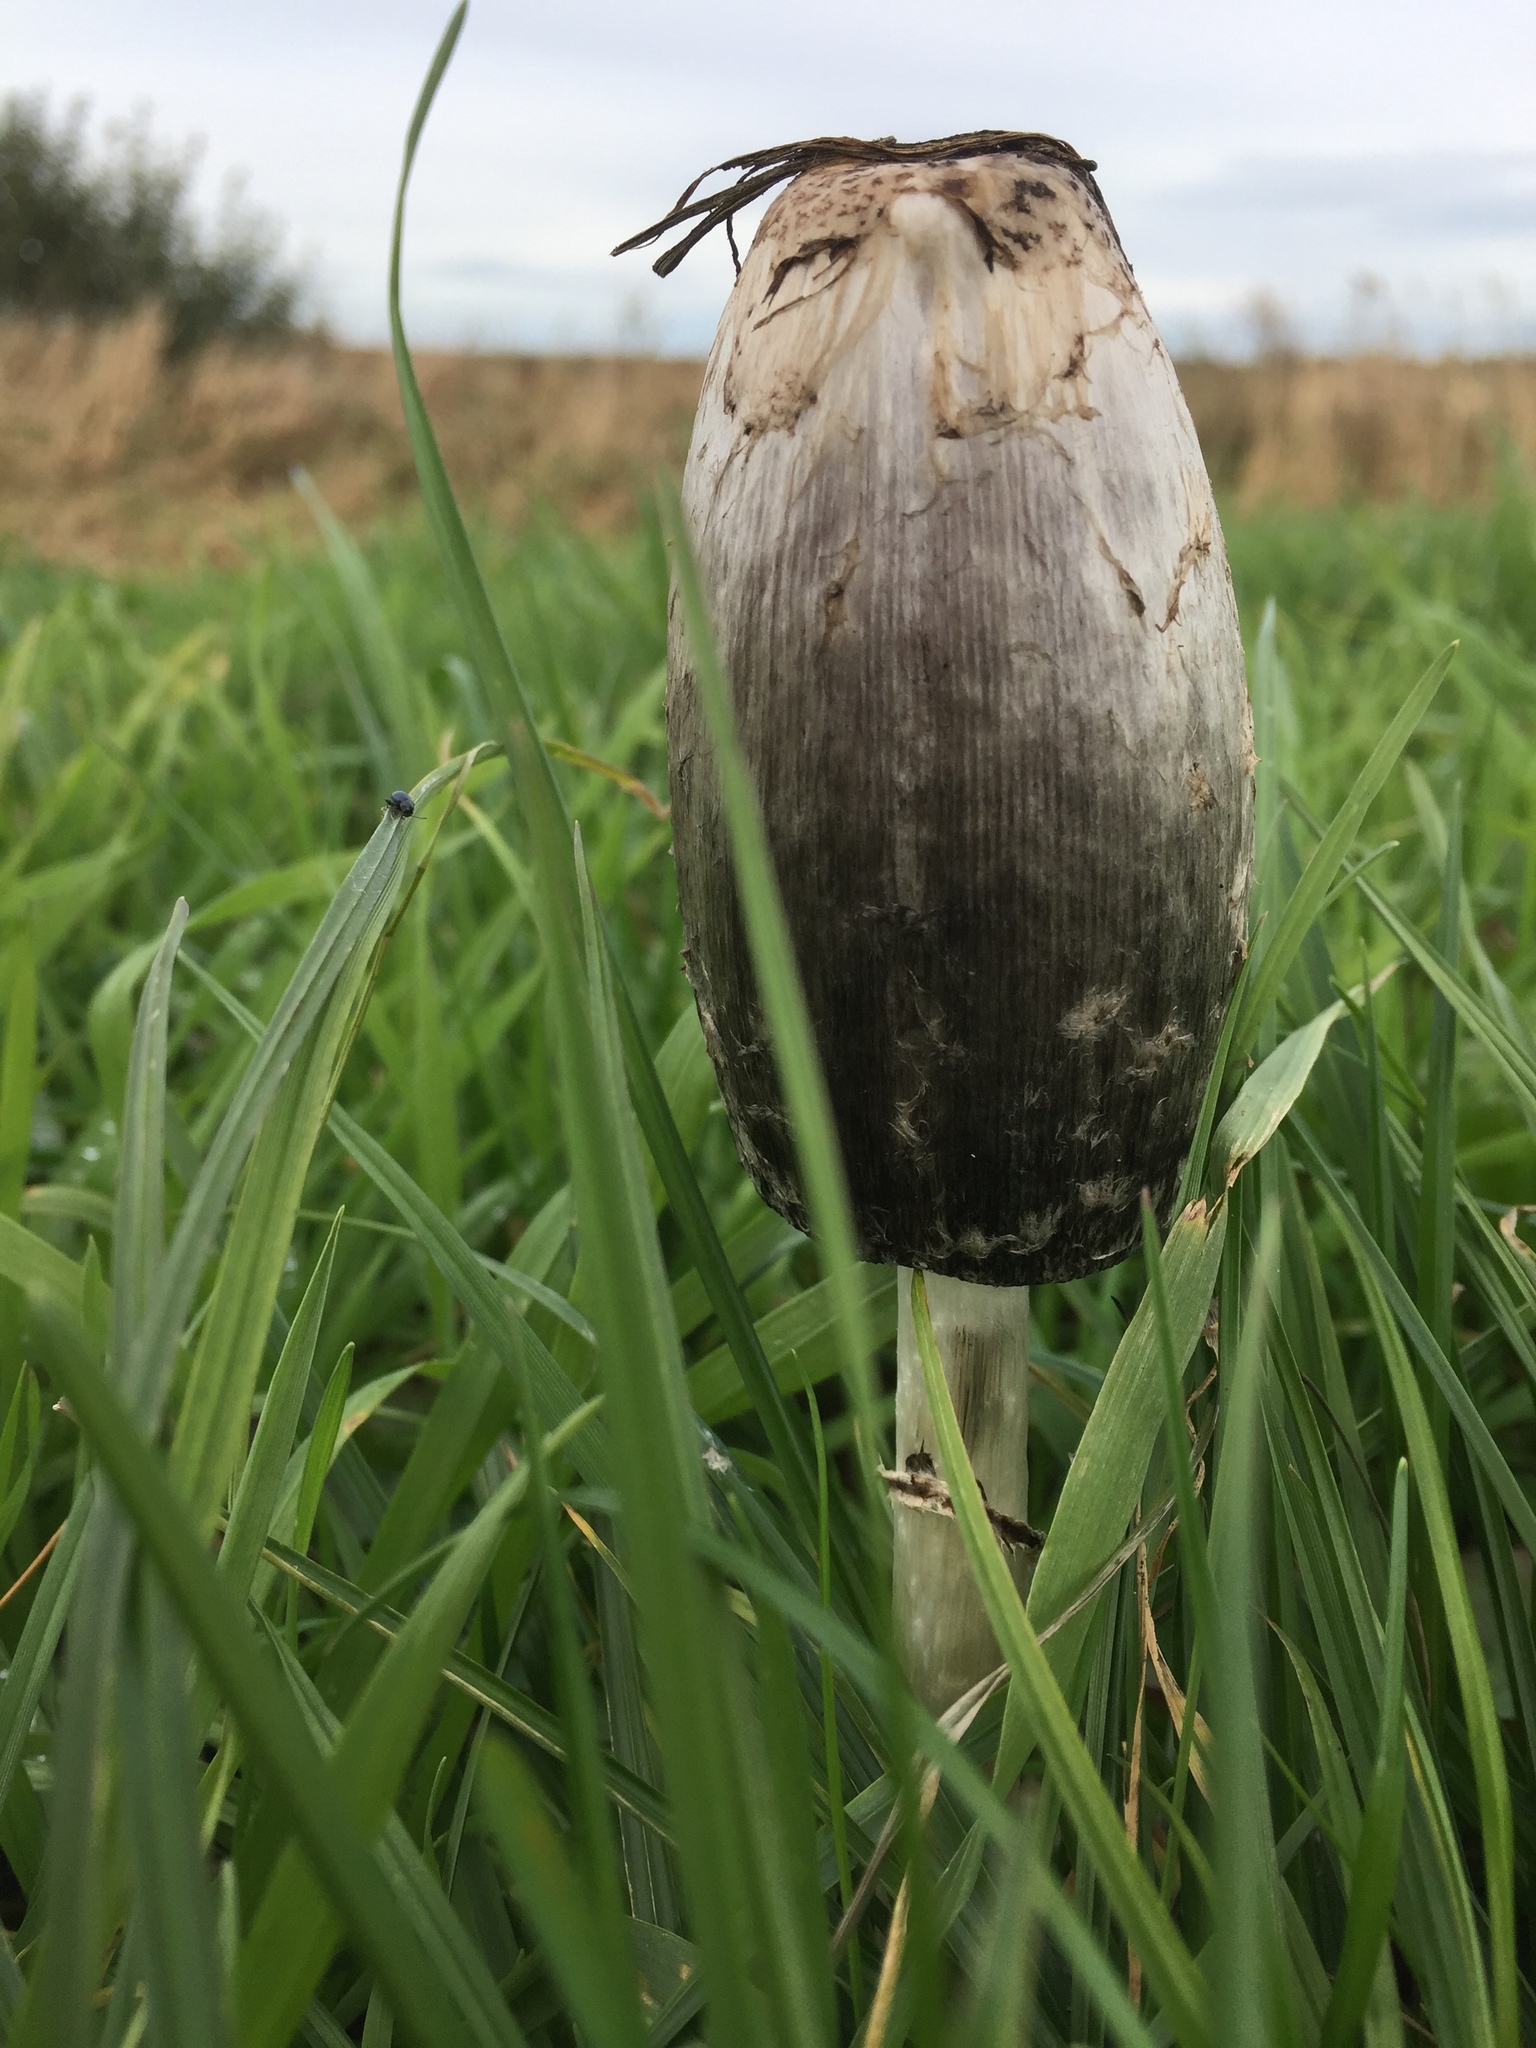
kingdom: Fungi
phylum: Basidiomycota
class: Agaricomycetes
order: Agaricales
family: Agaricaceae
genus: Coprinus
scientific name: Coprinus comatus
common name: Lawyer's wig
